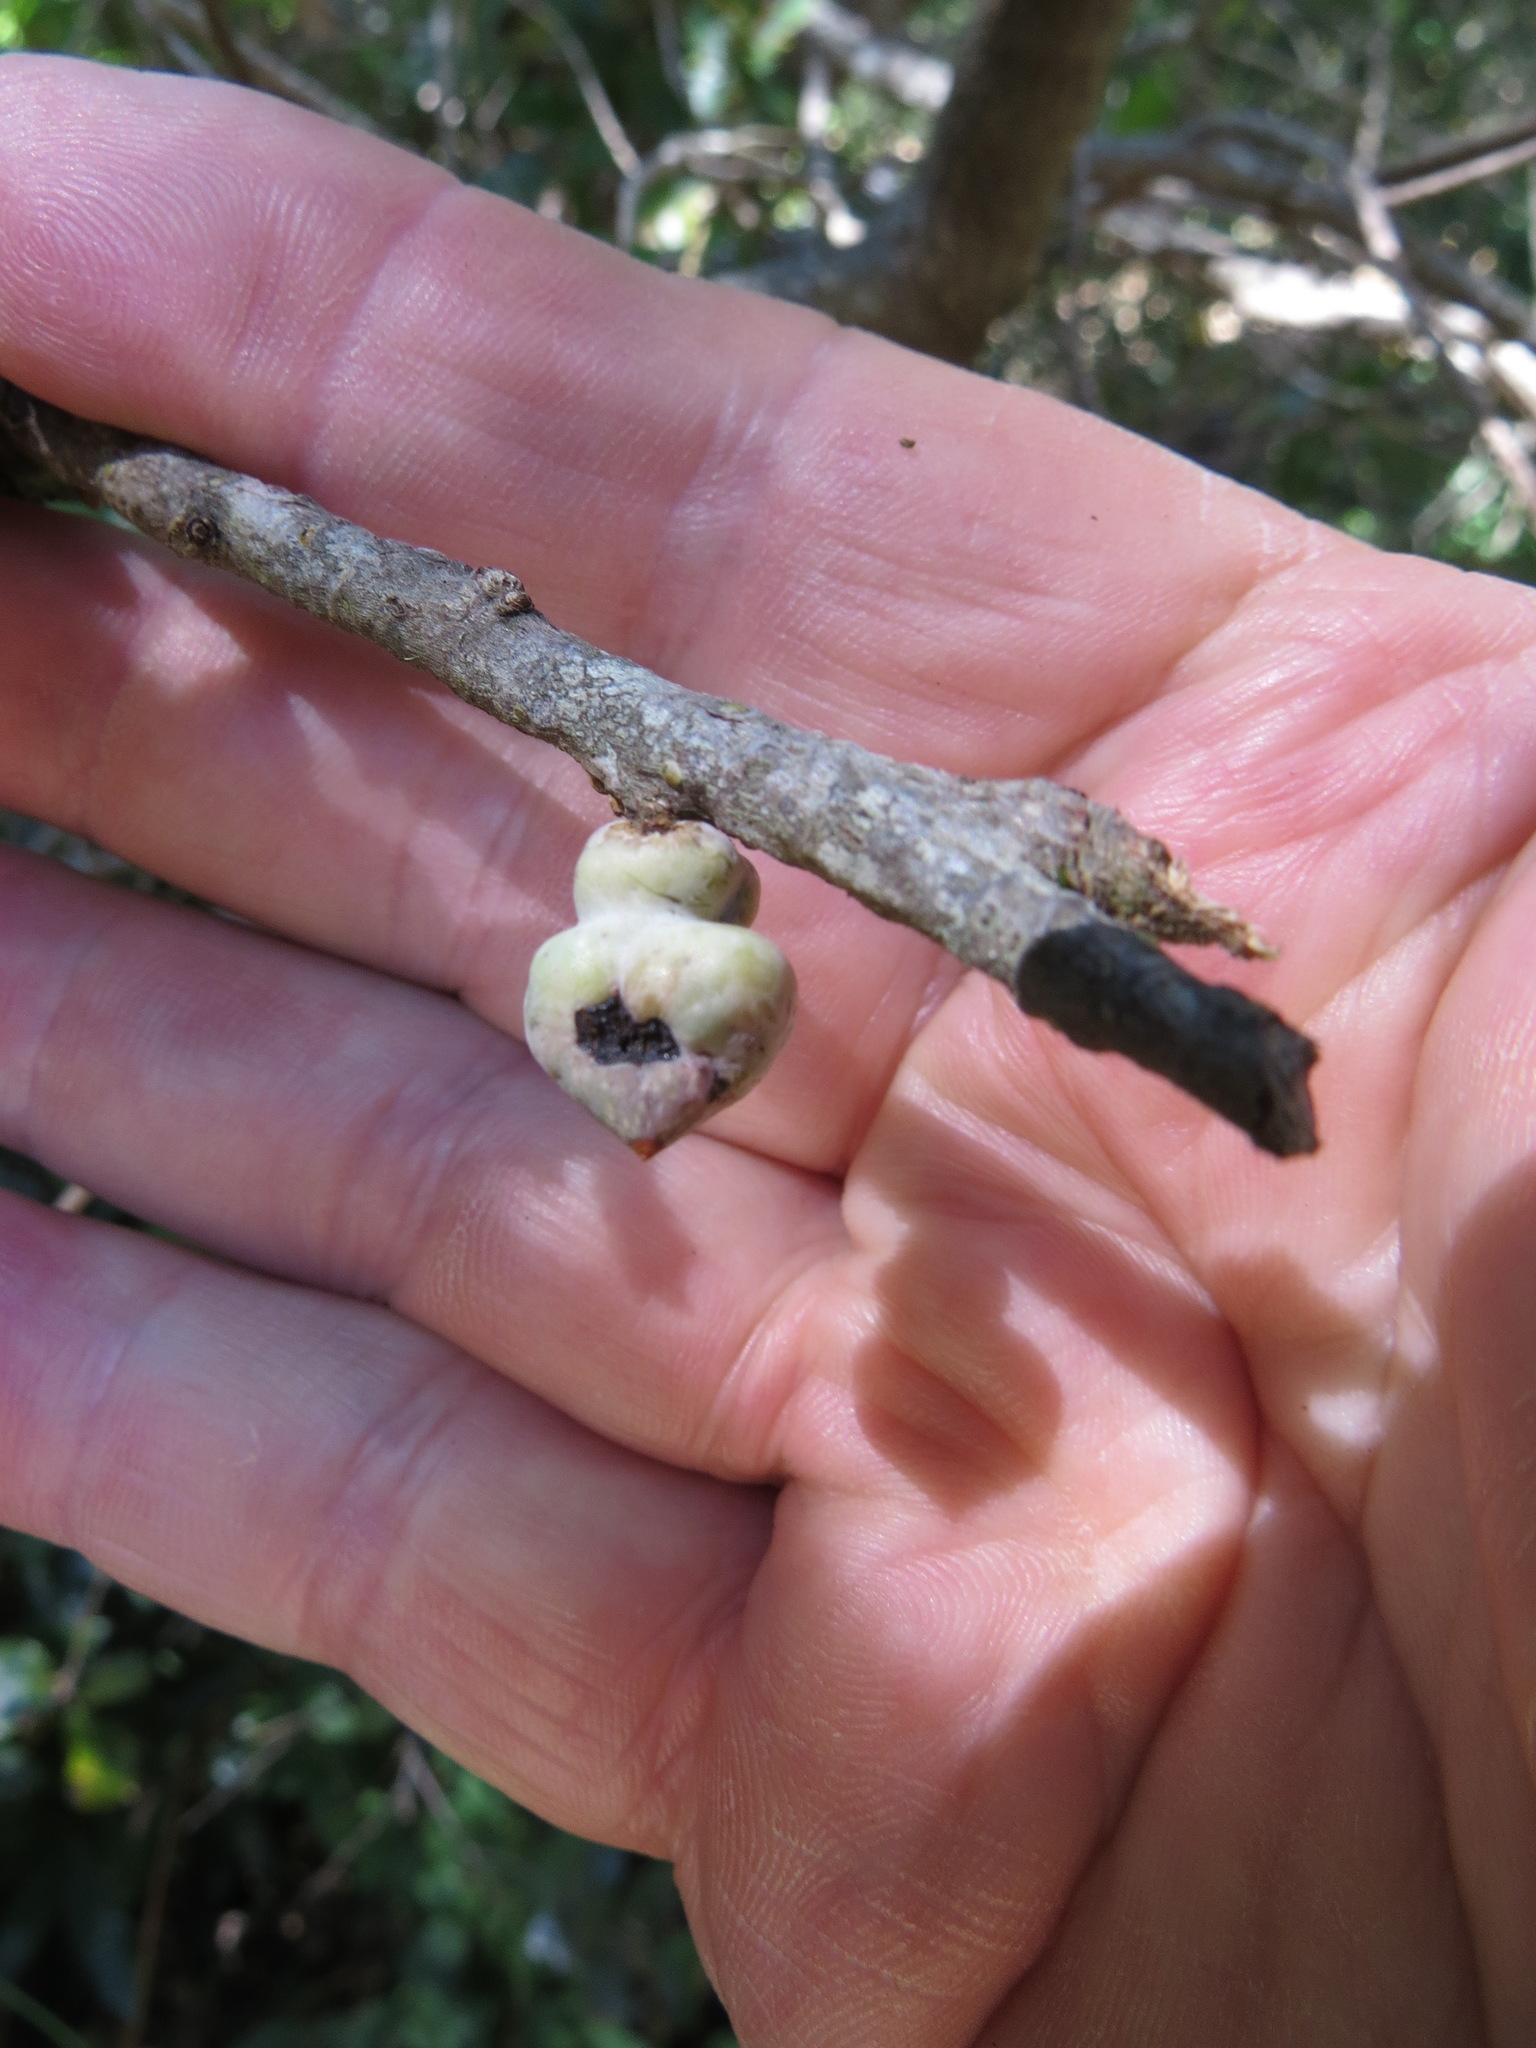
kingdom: Animalia
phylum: Arthropoda
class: Insecta
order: Hymenoptera
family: Cynipidae
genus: Heteroecus
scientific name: Heteroecus
